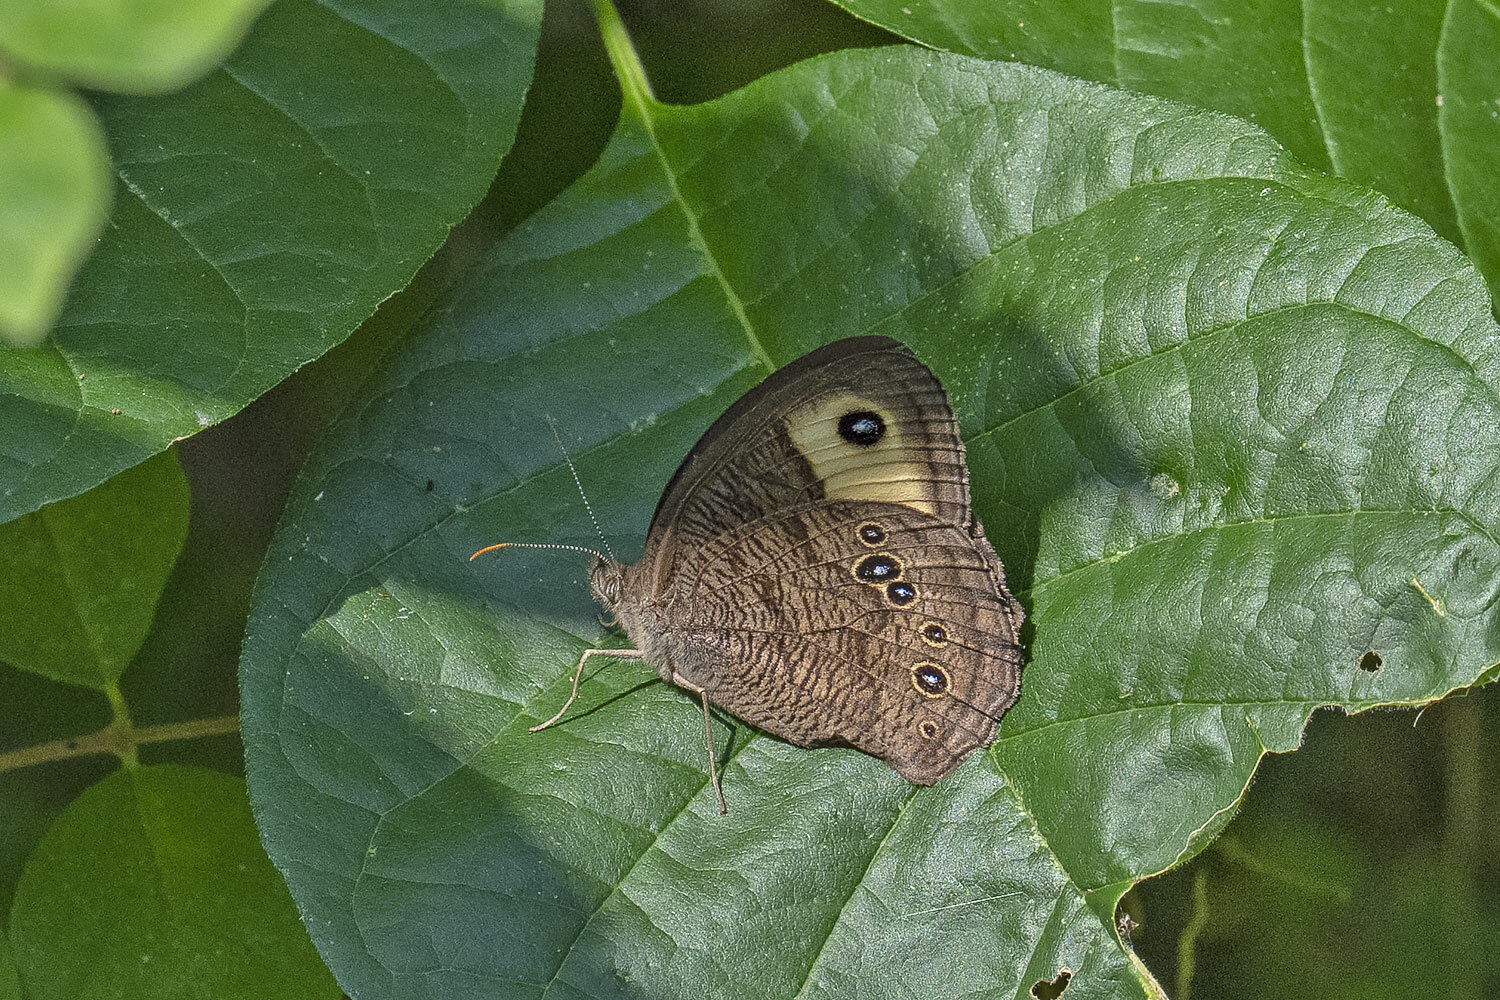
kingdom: Animalia
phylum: Arthropoda
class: Insecta
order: Lepidoptera
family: Nymphalidae
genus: Cercyonis
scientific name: Cercyonis pegala
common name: Common wood-nymph
